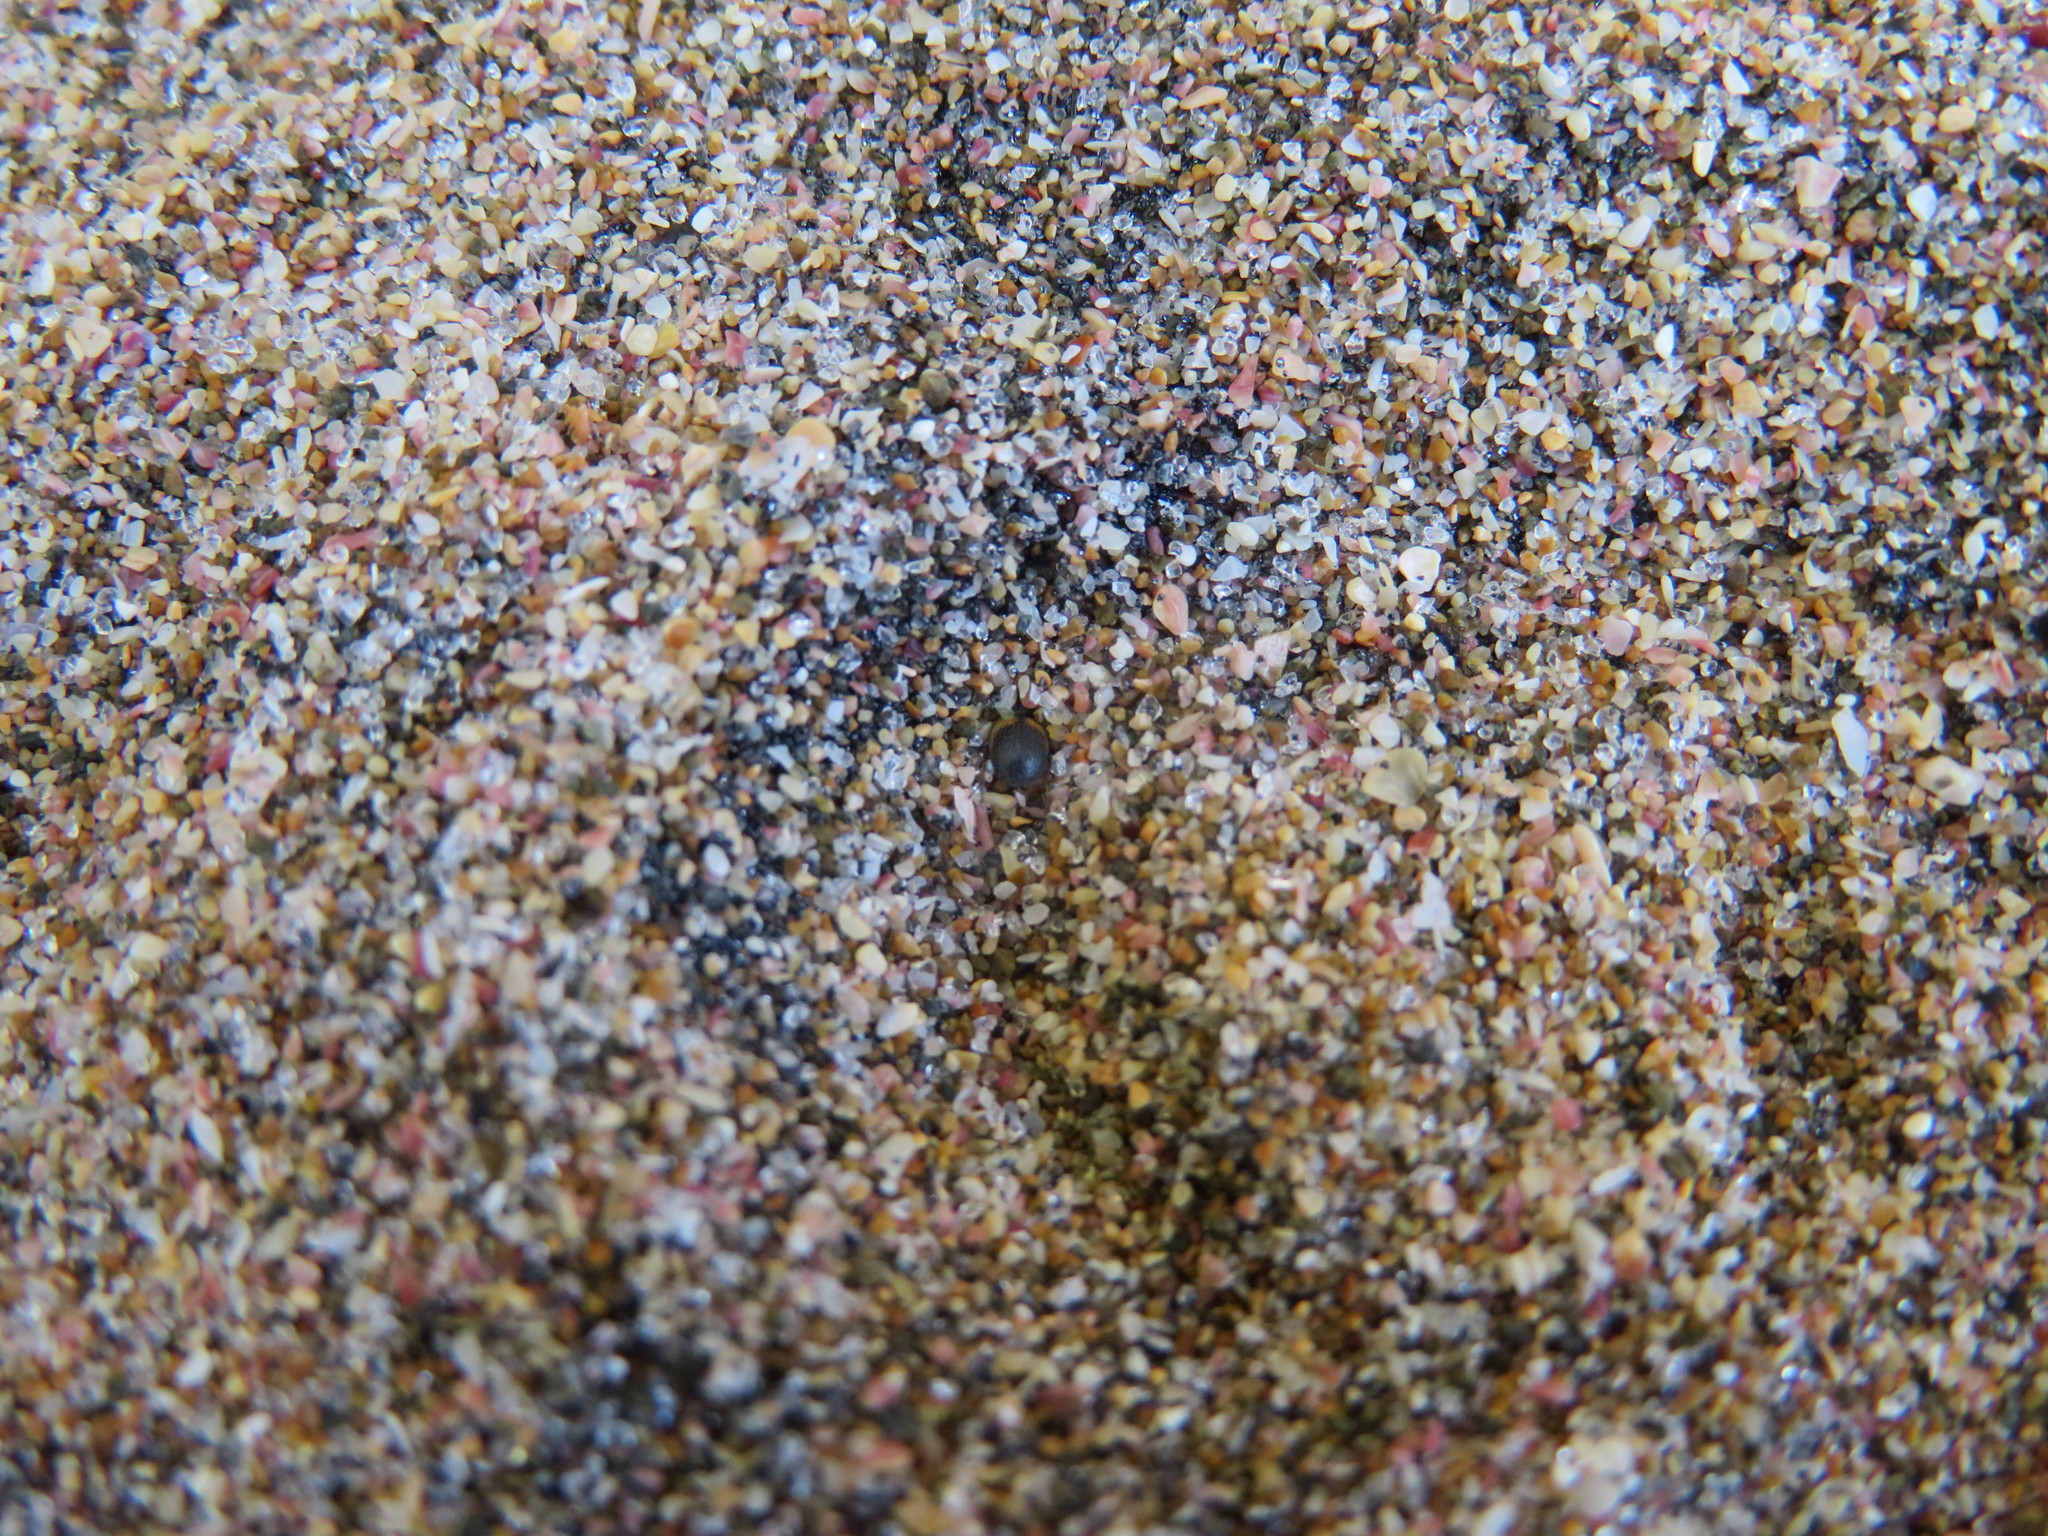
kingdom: Animalia
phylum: Arthropoda
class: Insecta
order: Coleoptera
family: Phycosecidae
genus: Phycosecis
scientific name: Phycosecis
